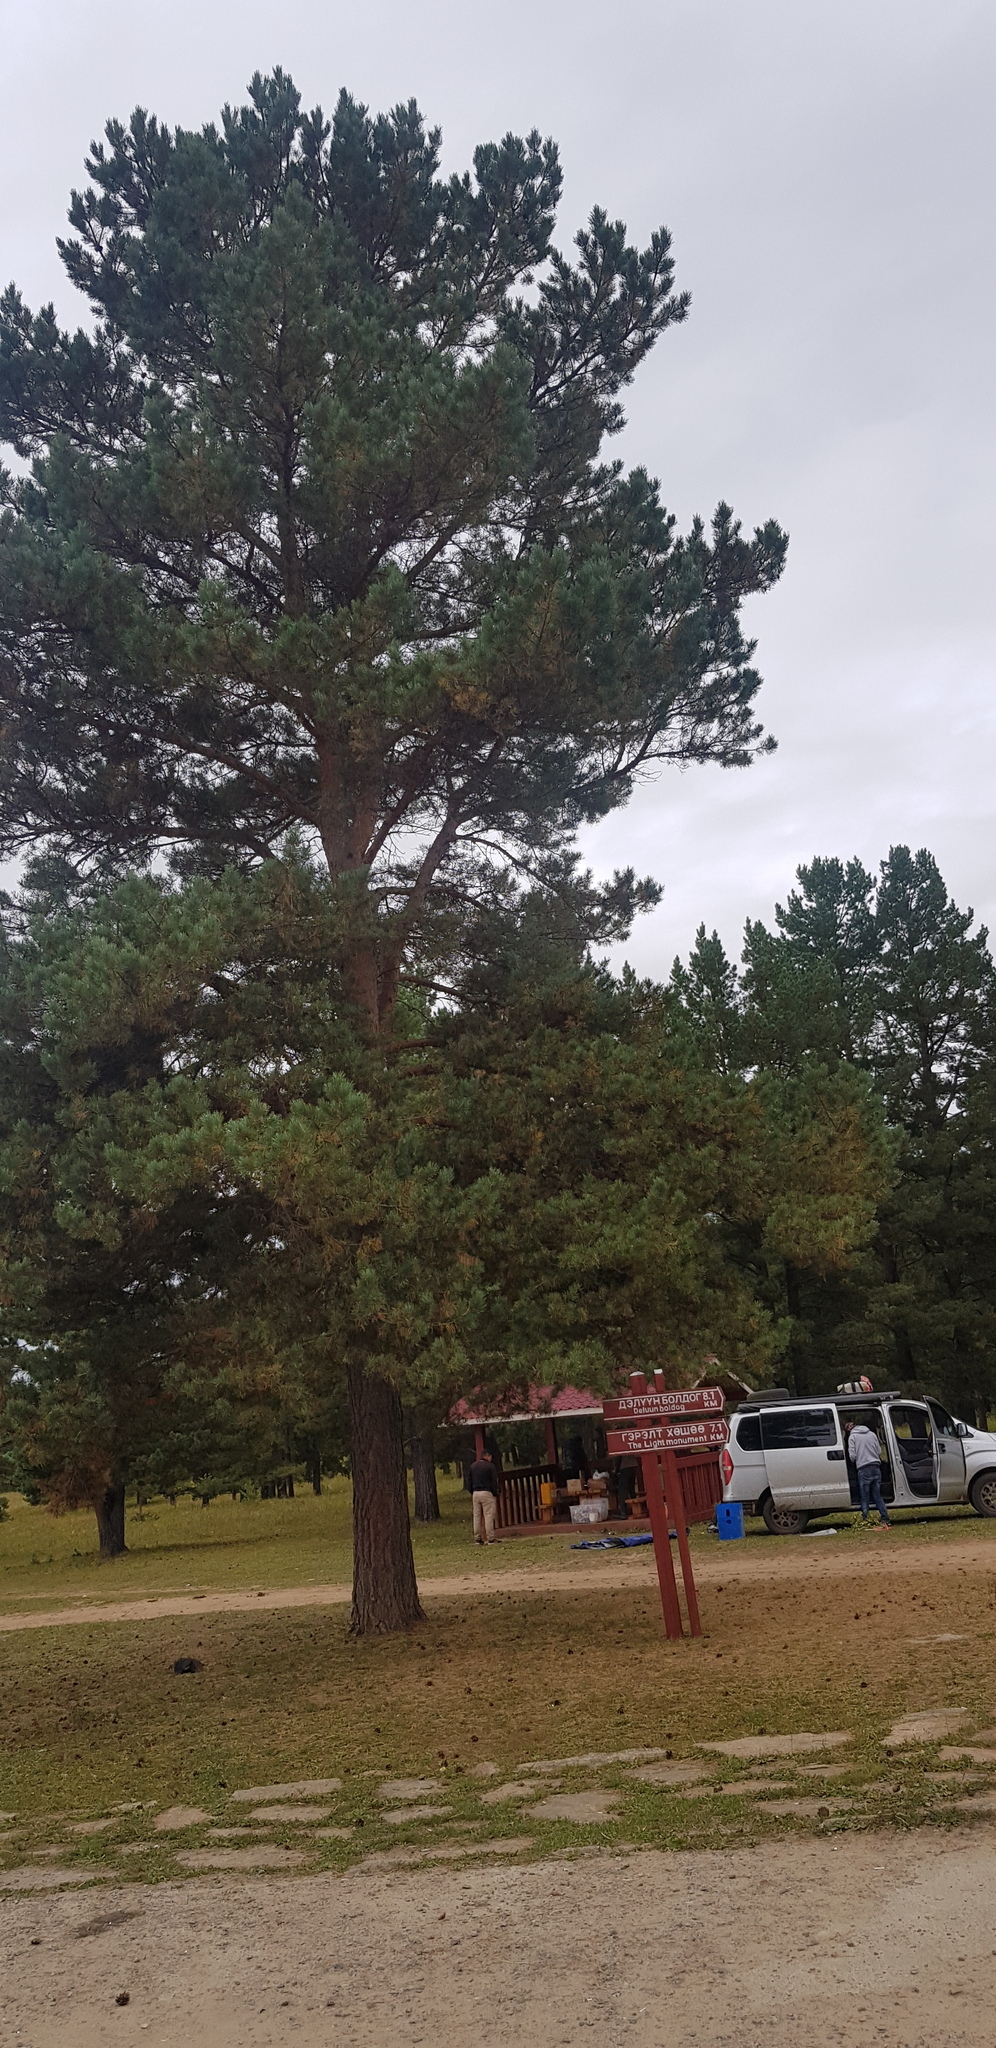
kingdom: Plantae
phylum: Tracheophyta
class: Pinopsida
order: Pinales
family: Pinaceae
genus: Pinus
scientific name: Pinus sylvestris
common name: Scots pine
